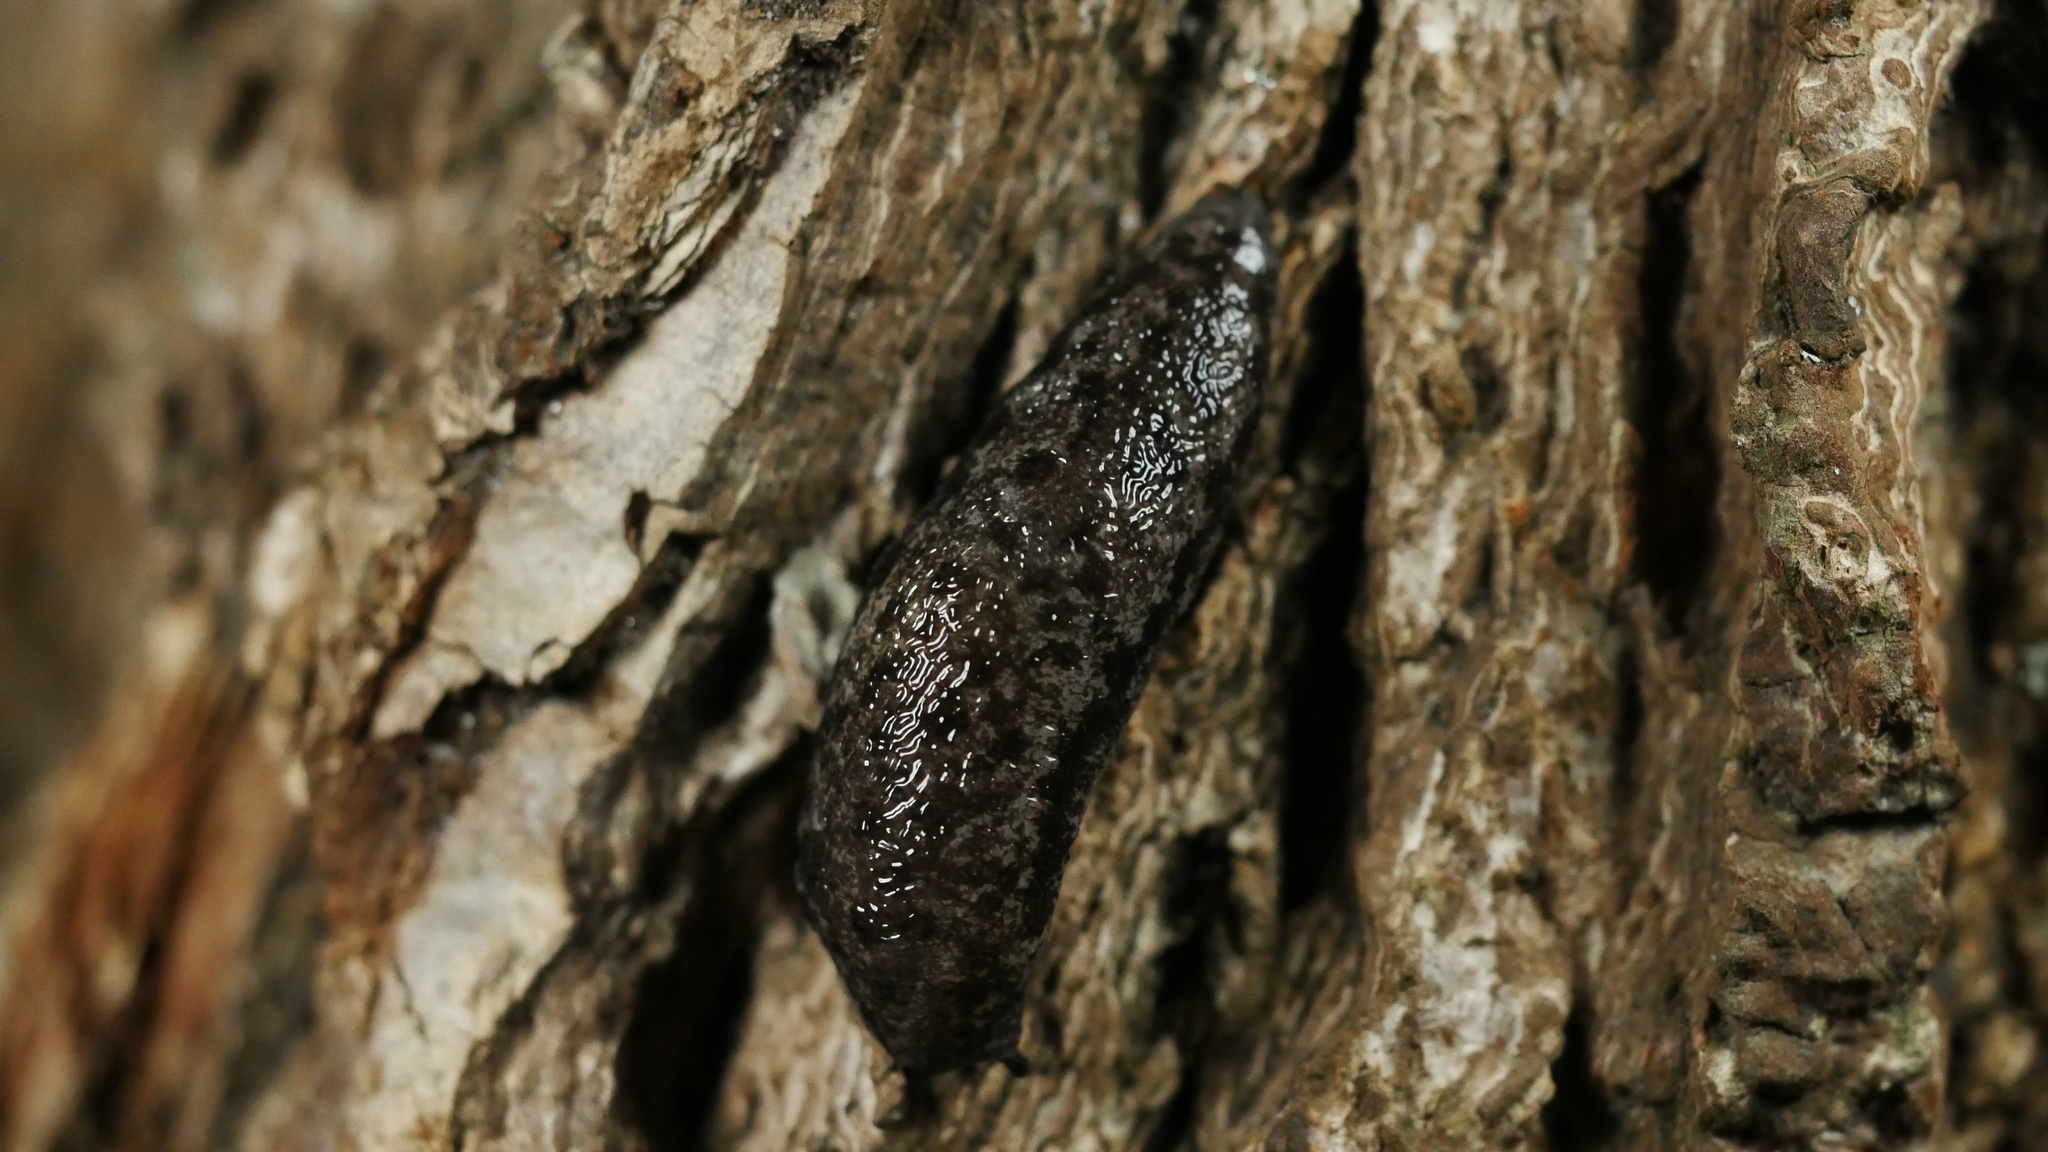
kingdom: Animalia
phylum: Mollusca
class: Gastropoda
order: Stylommatophora
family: Philomycidae
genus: Megapallifera
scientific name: Megapallifera mutabilis
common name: Changeable mantleslug
